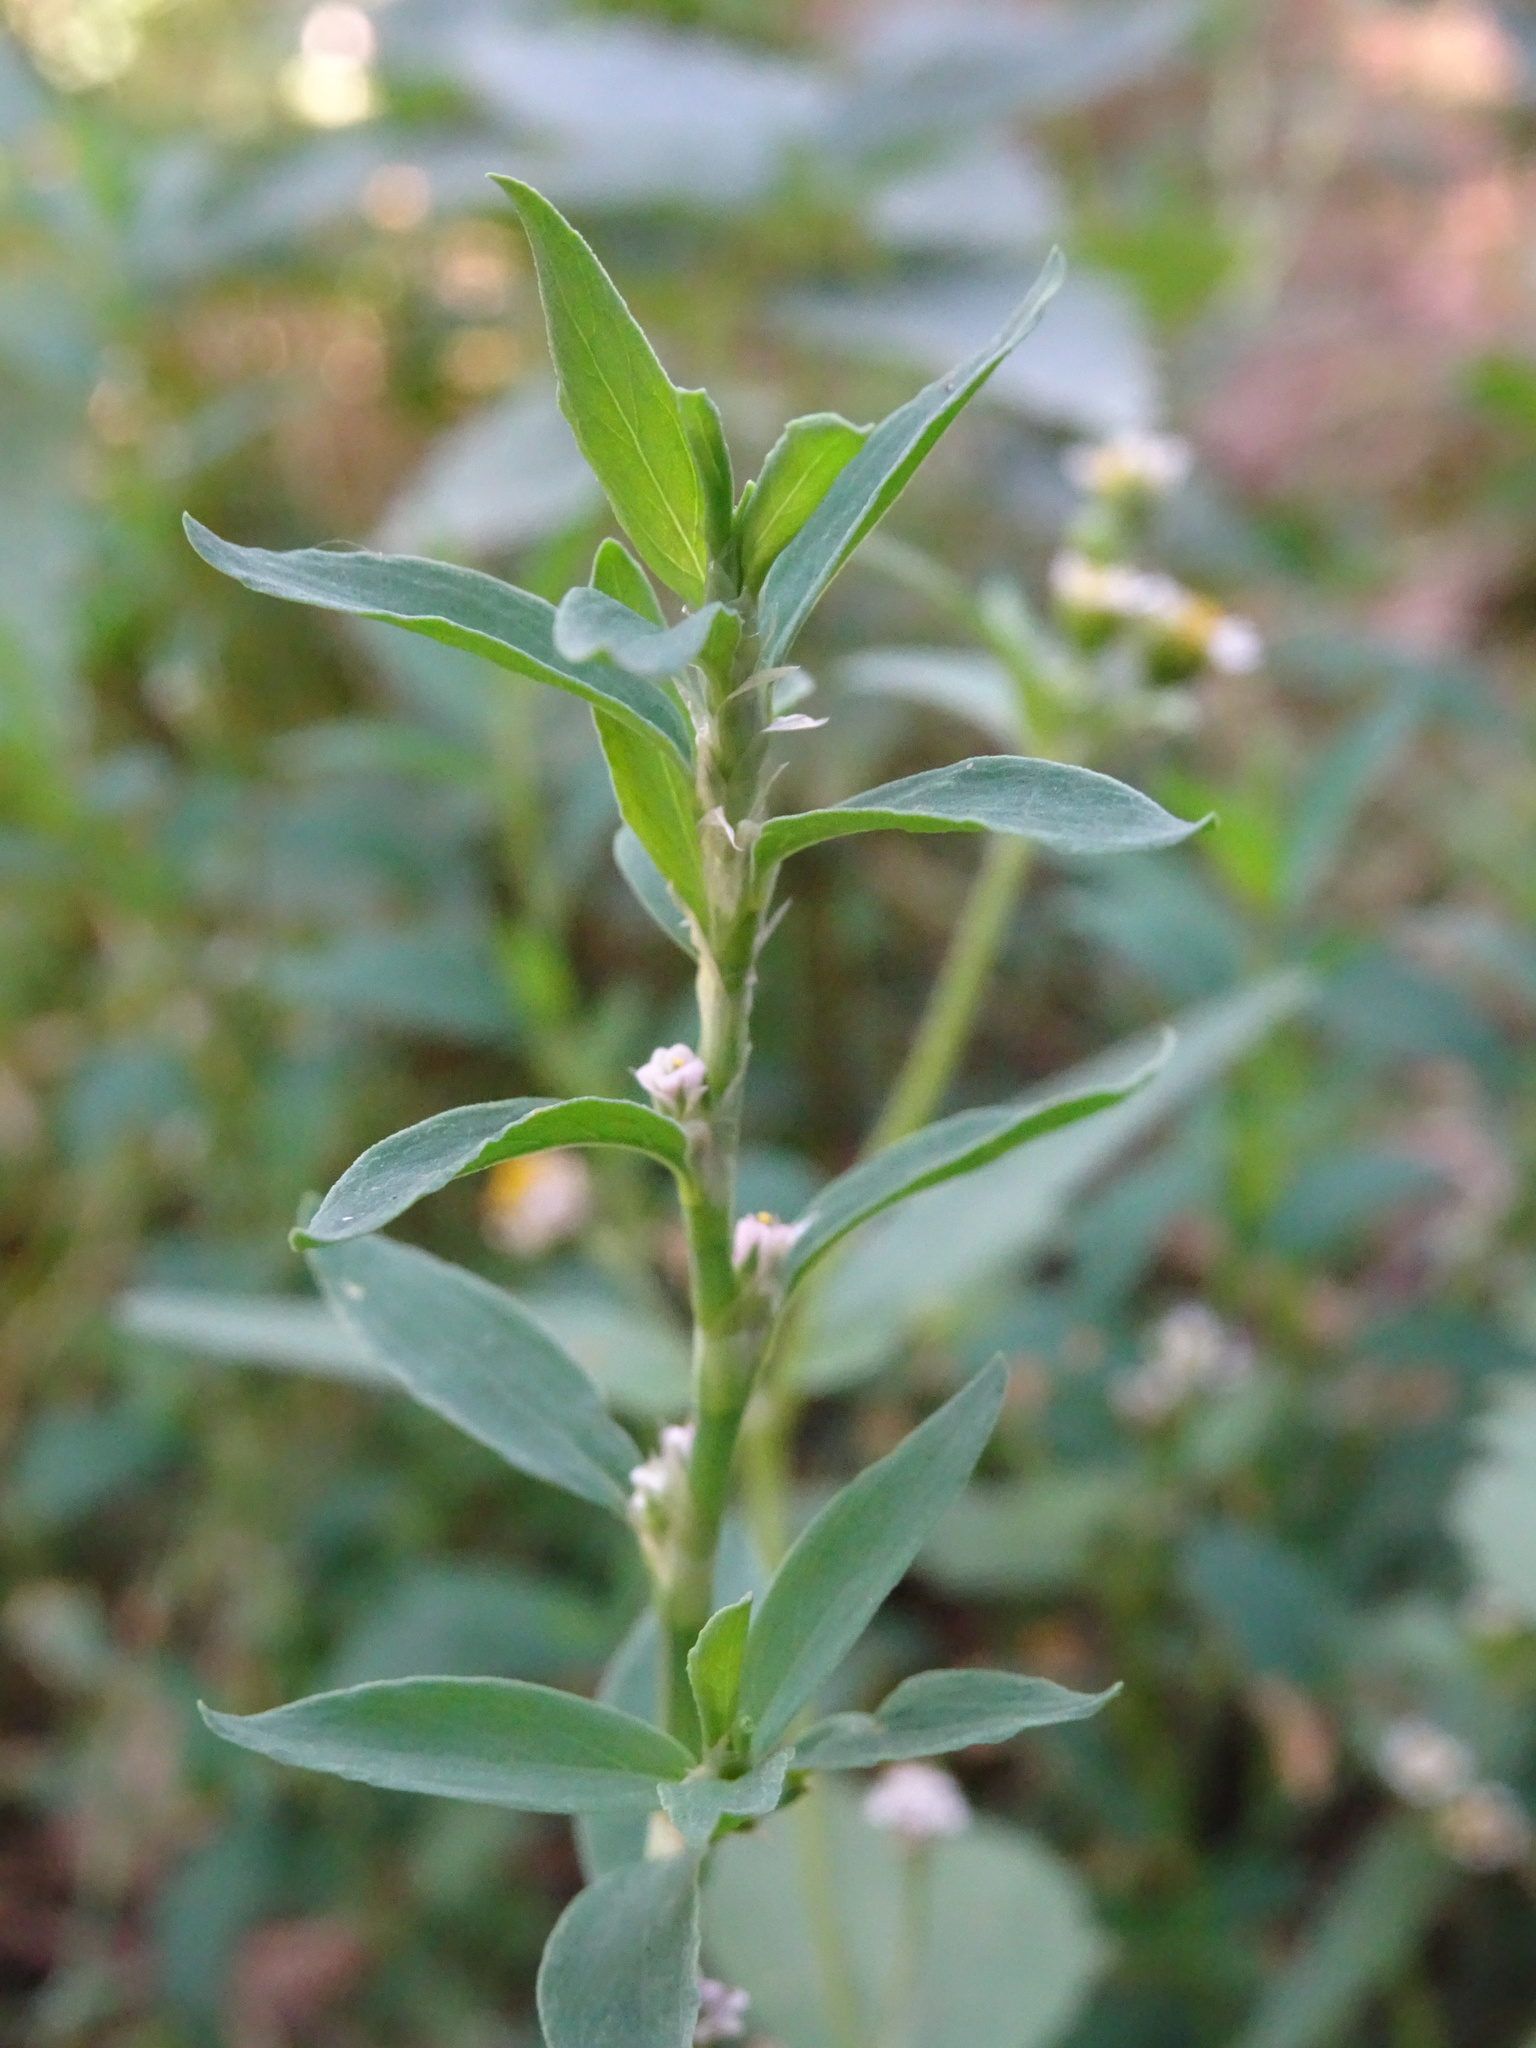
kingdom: Plantae
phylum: Tracheophyta
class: Magnoliopsida
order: Caryophyllales
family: Polygonaceae
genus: Polygonum
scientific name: Polygonum aviculare
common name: Prostrate knotweed
